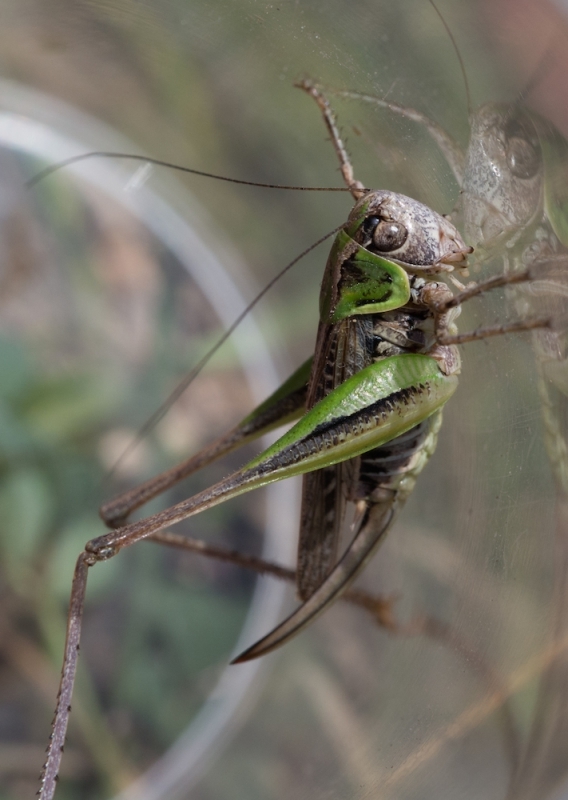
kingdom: Animalia
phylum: Arthropoda
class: Insecta
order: Orthoptera
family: Tettigoniidae
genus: Montana
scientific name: Montana montana
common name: Steppe bush-cricket
